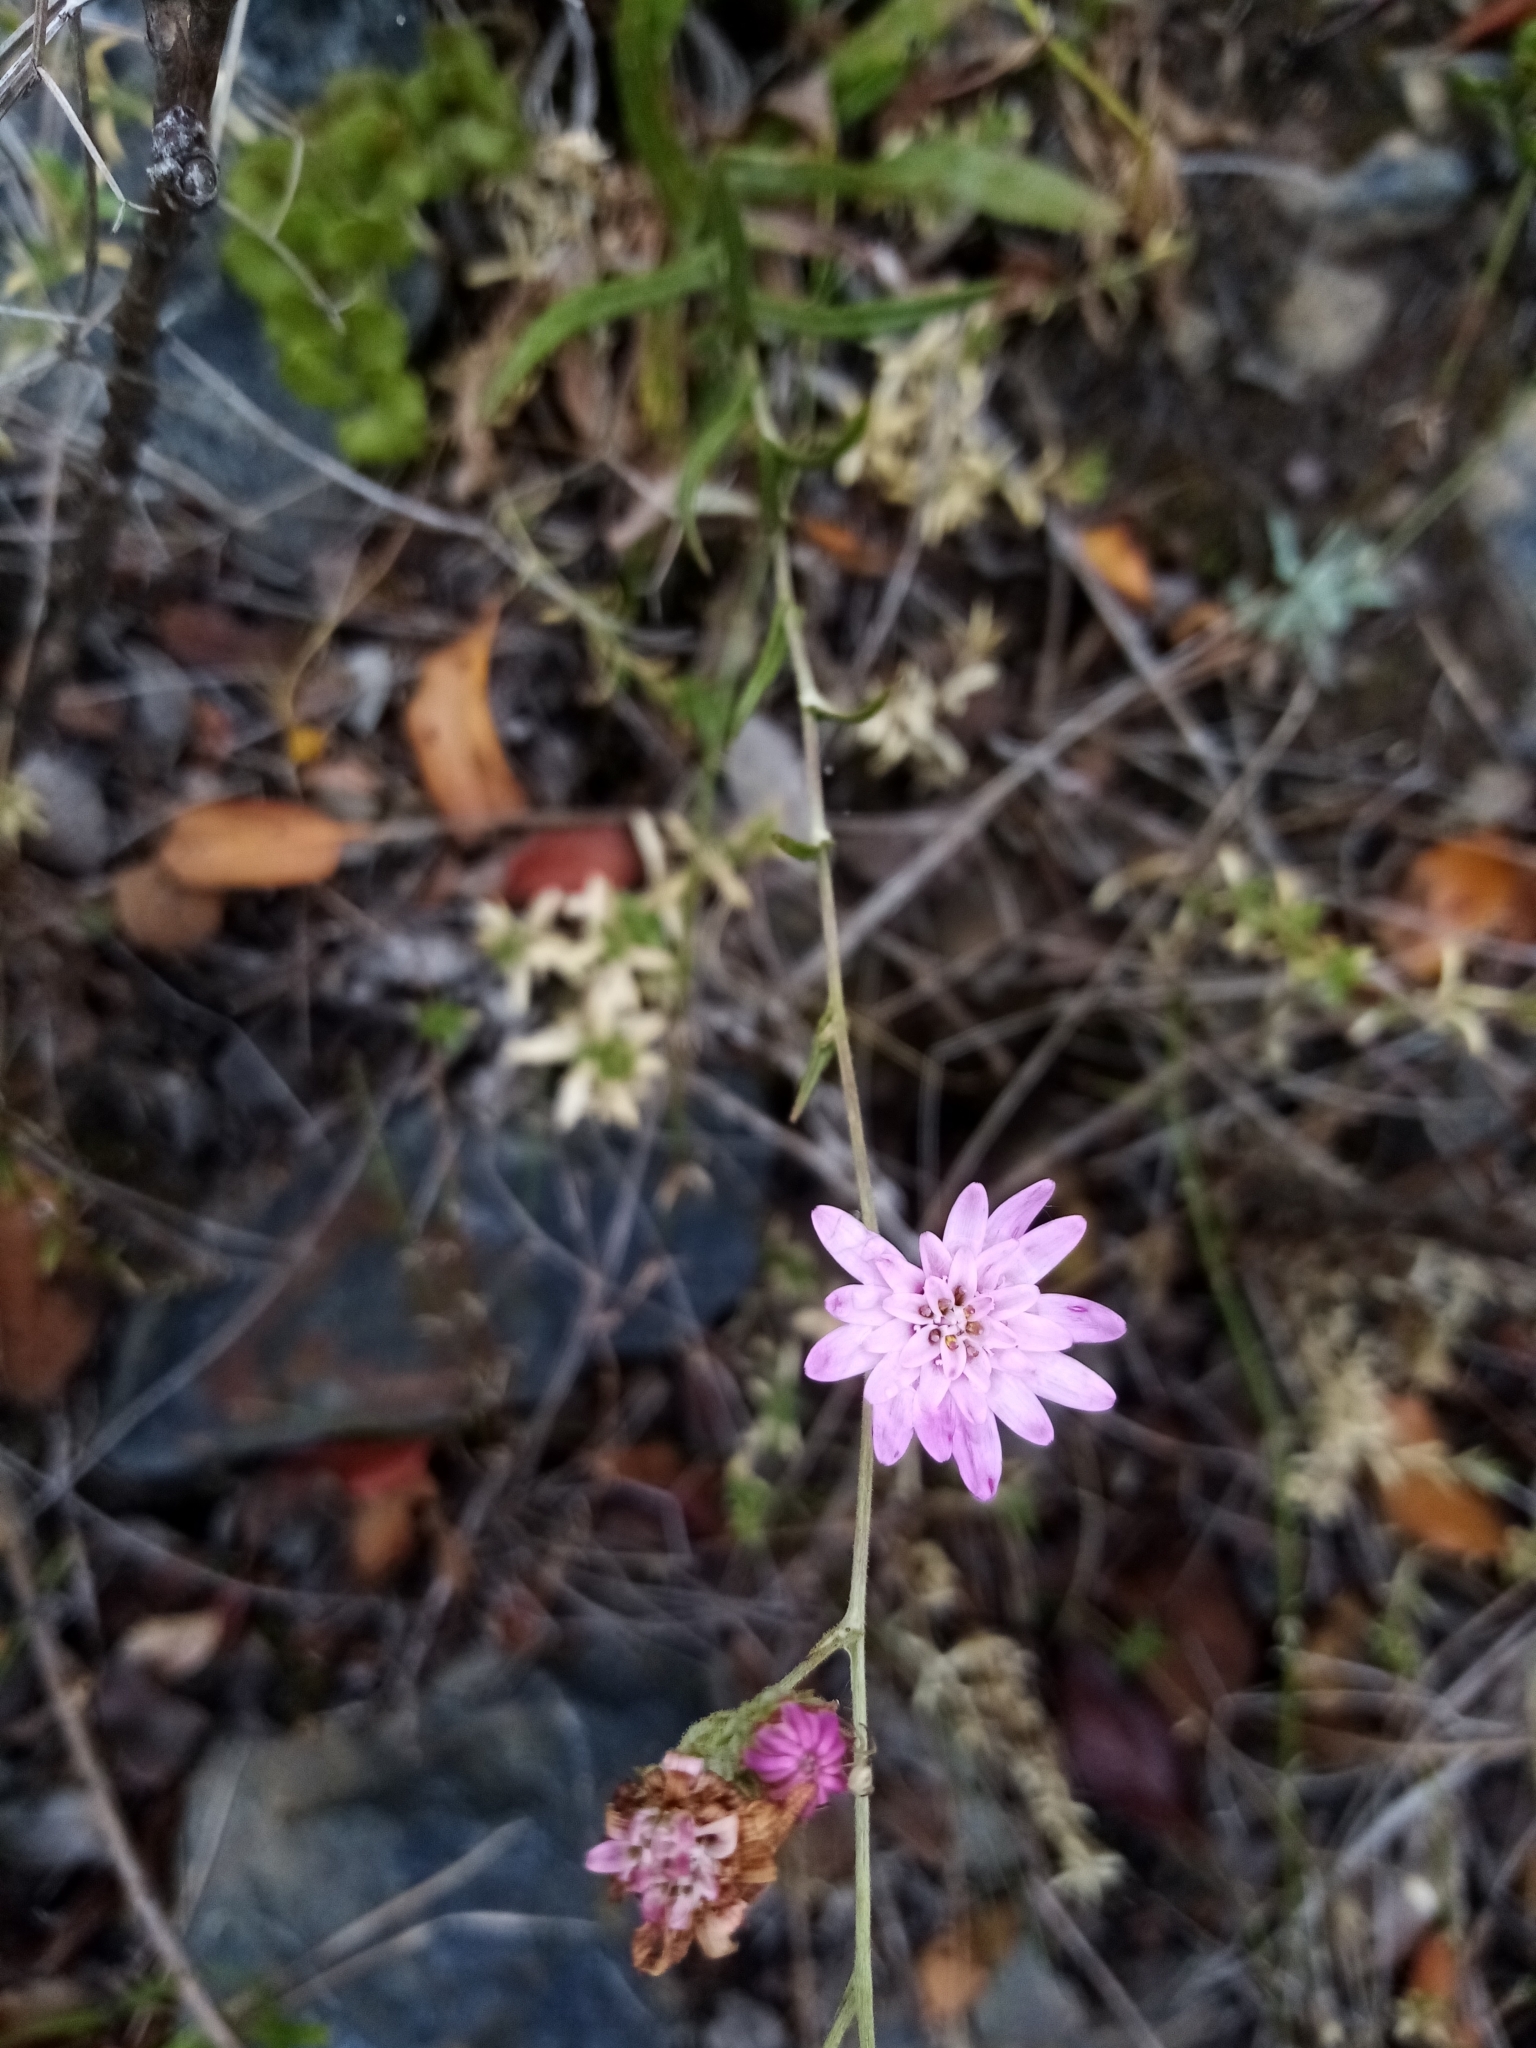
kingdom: Plantae
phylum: Tracheophyta
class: Magnoliopsida
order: Asterales
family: Asteraceae
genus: Leucheria
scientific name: Leucheria rosea
